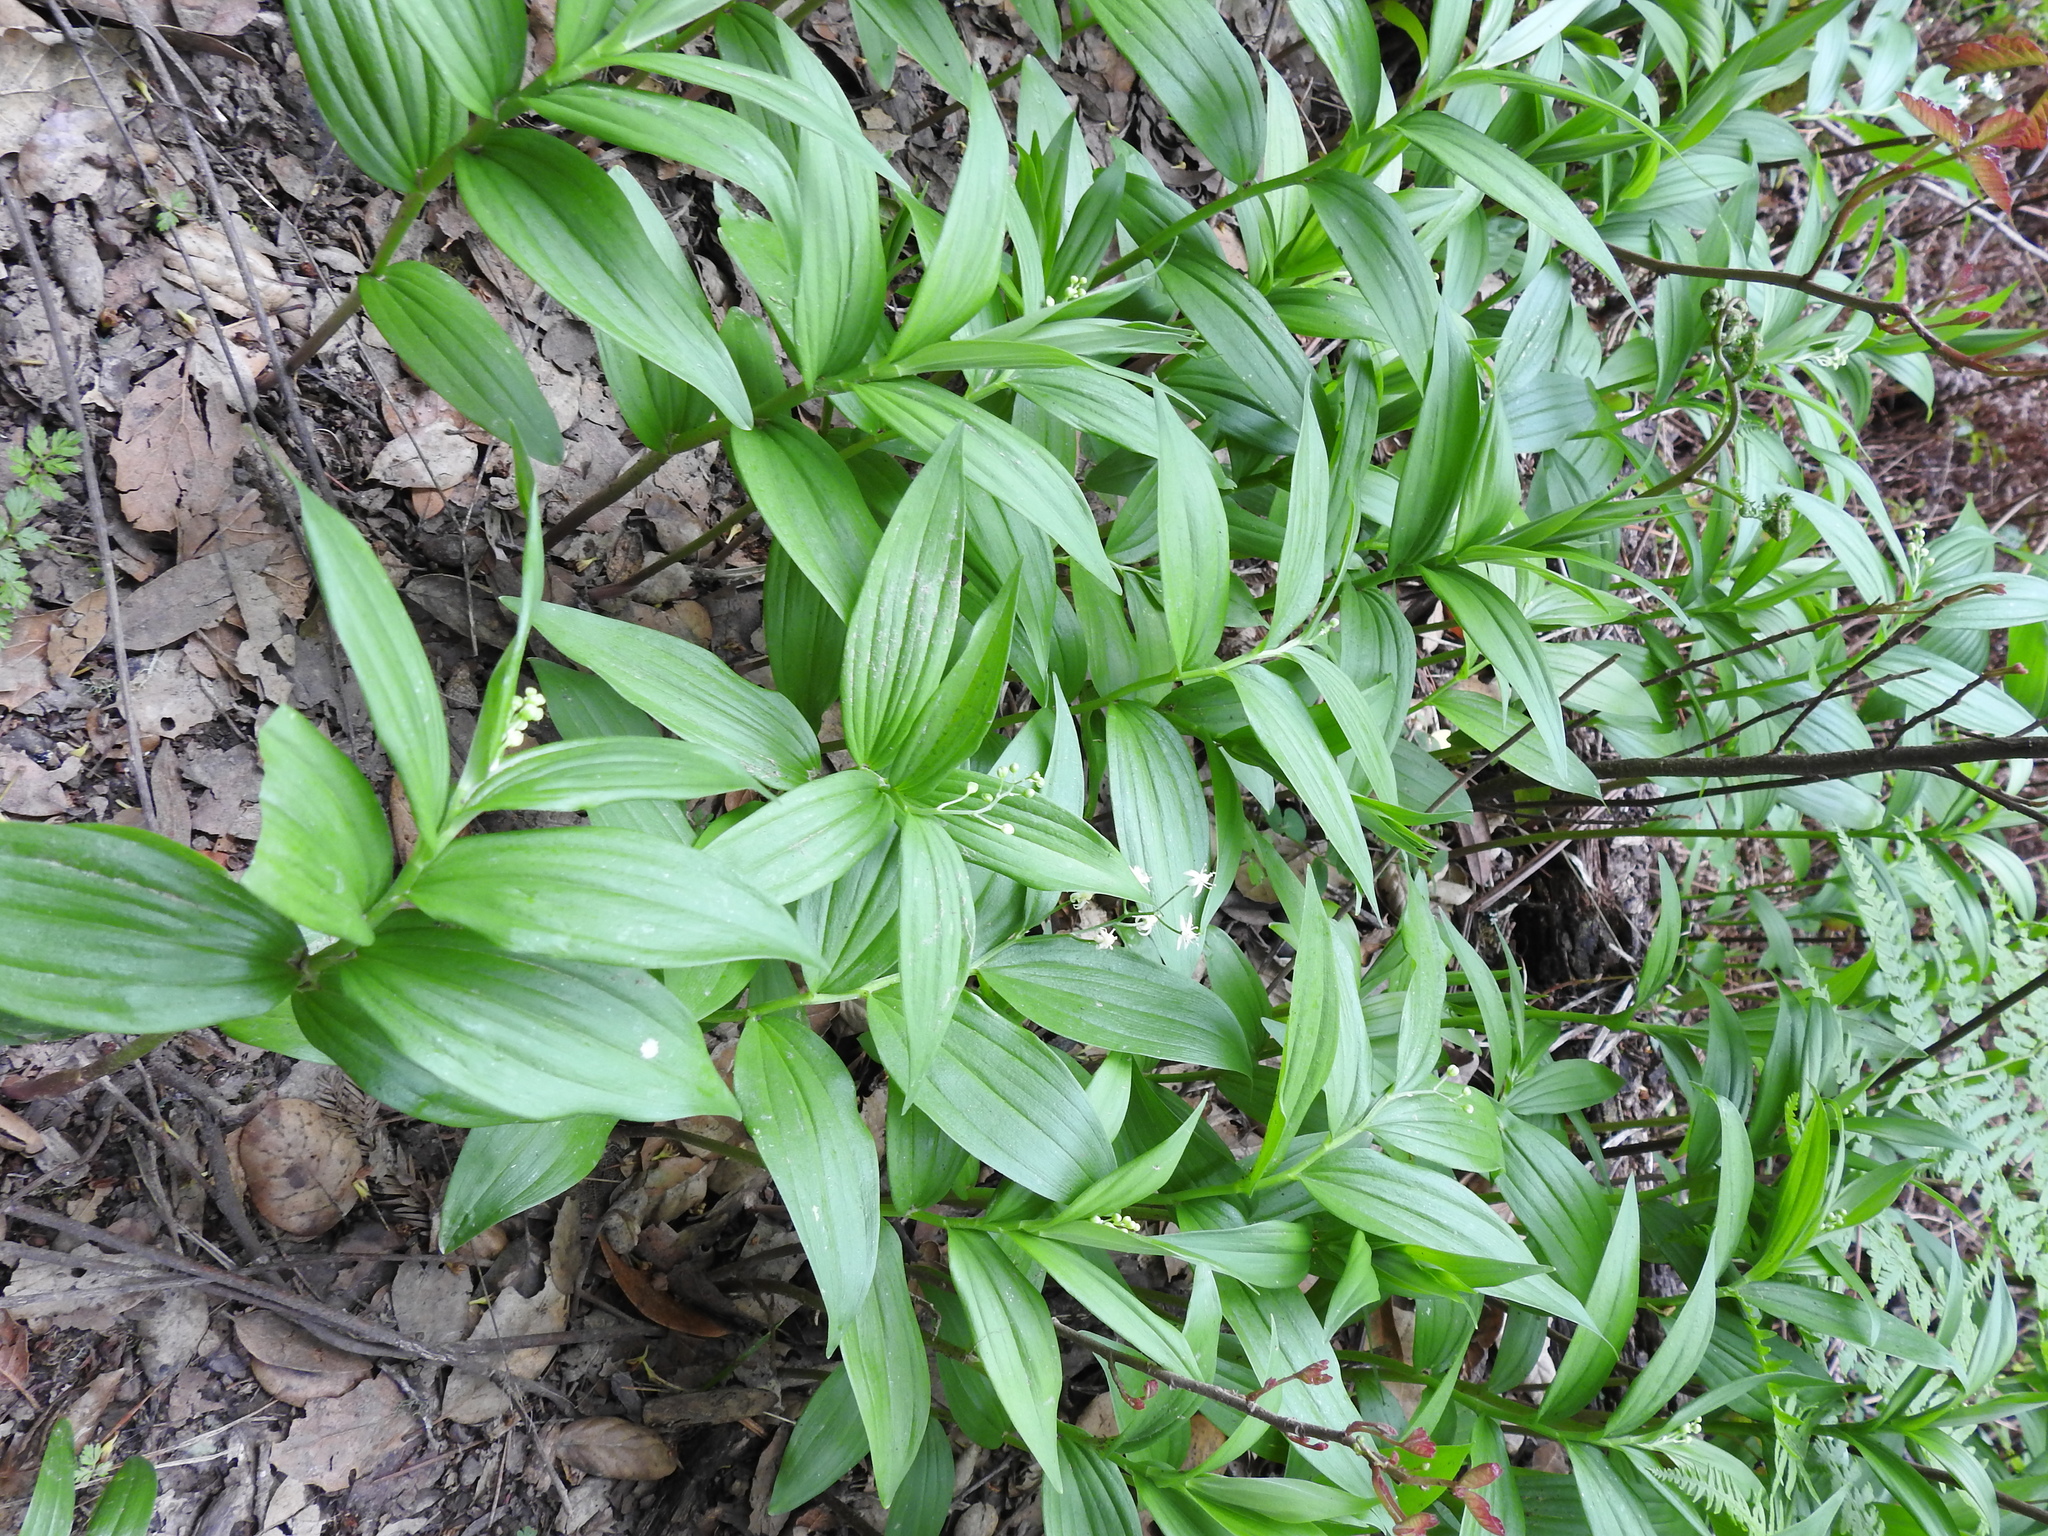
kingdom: Plantae
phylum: Tracheophyta
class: Liliopsida
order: Asparagales
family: Asparagaceae
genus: Maianthemum
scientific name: Maianthemum stellatum
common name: Little false solomon's seal
